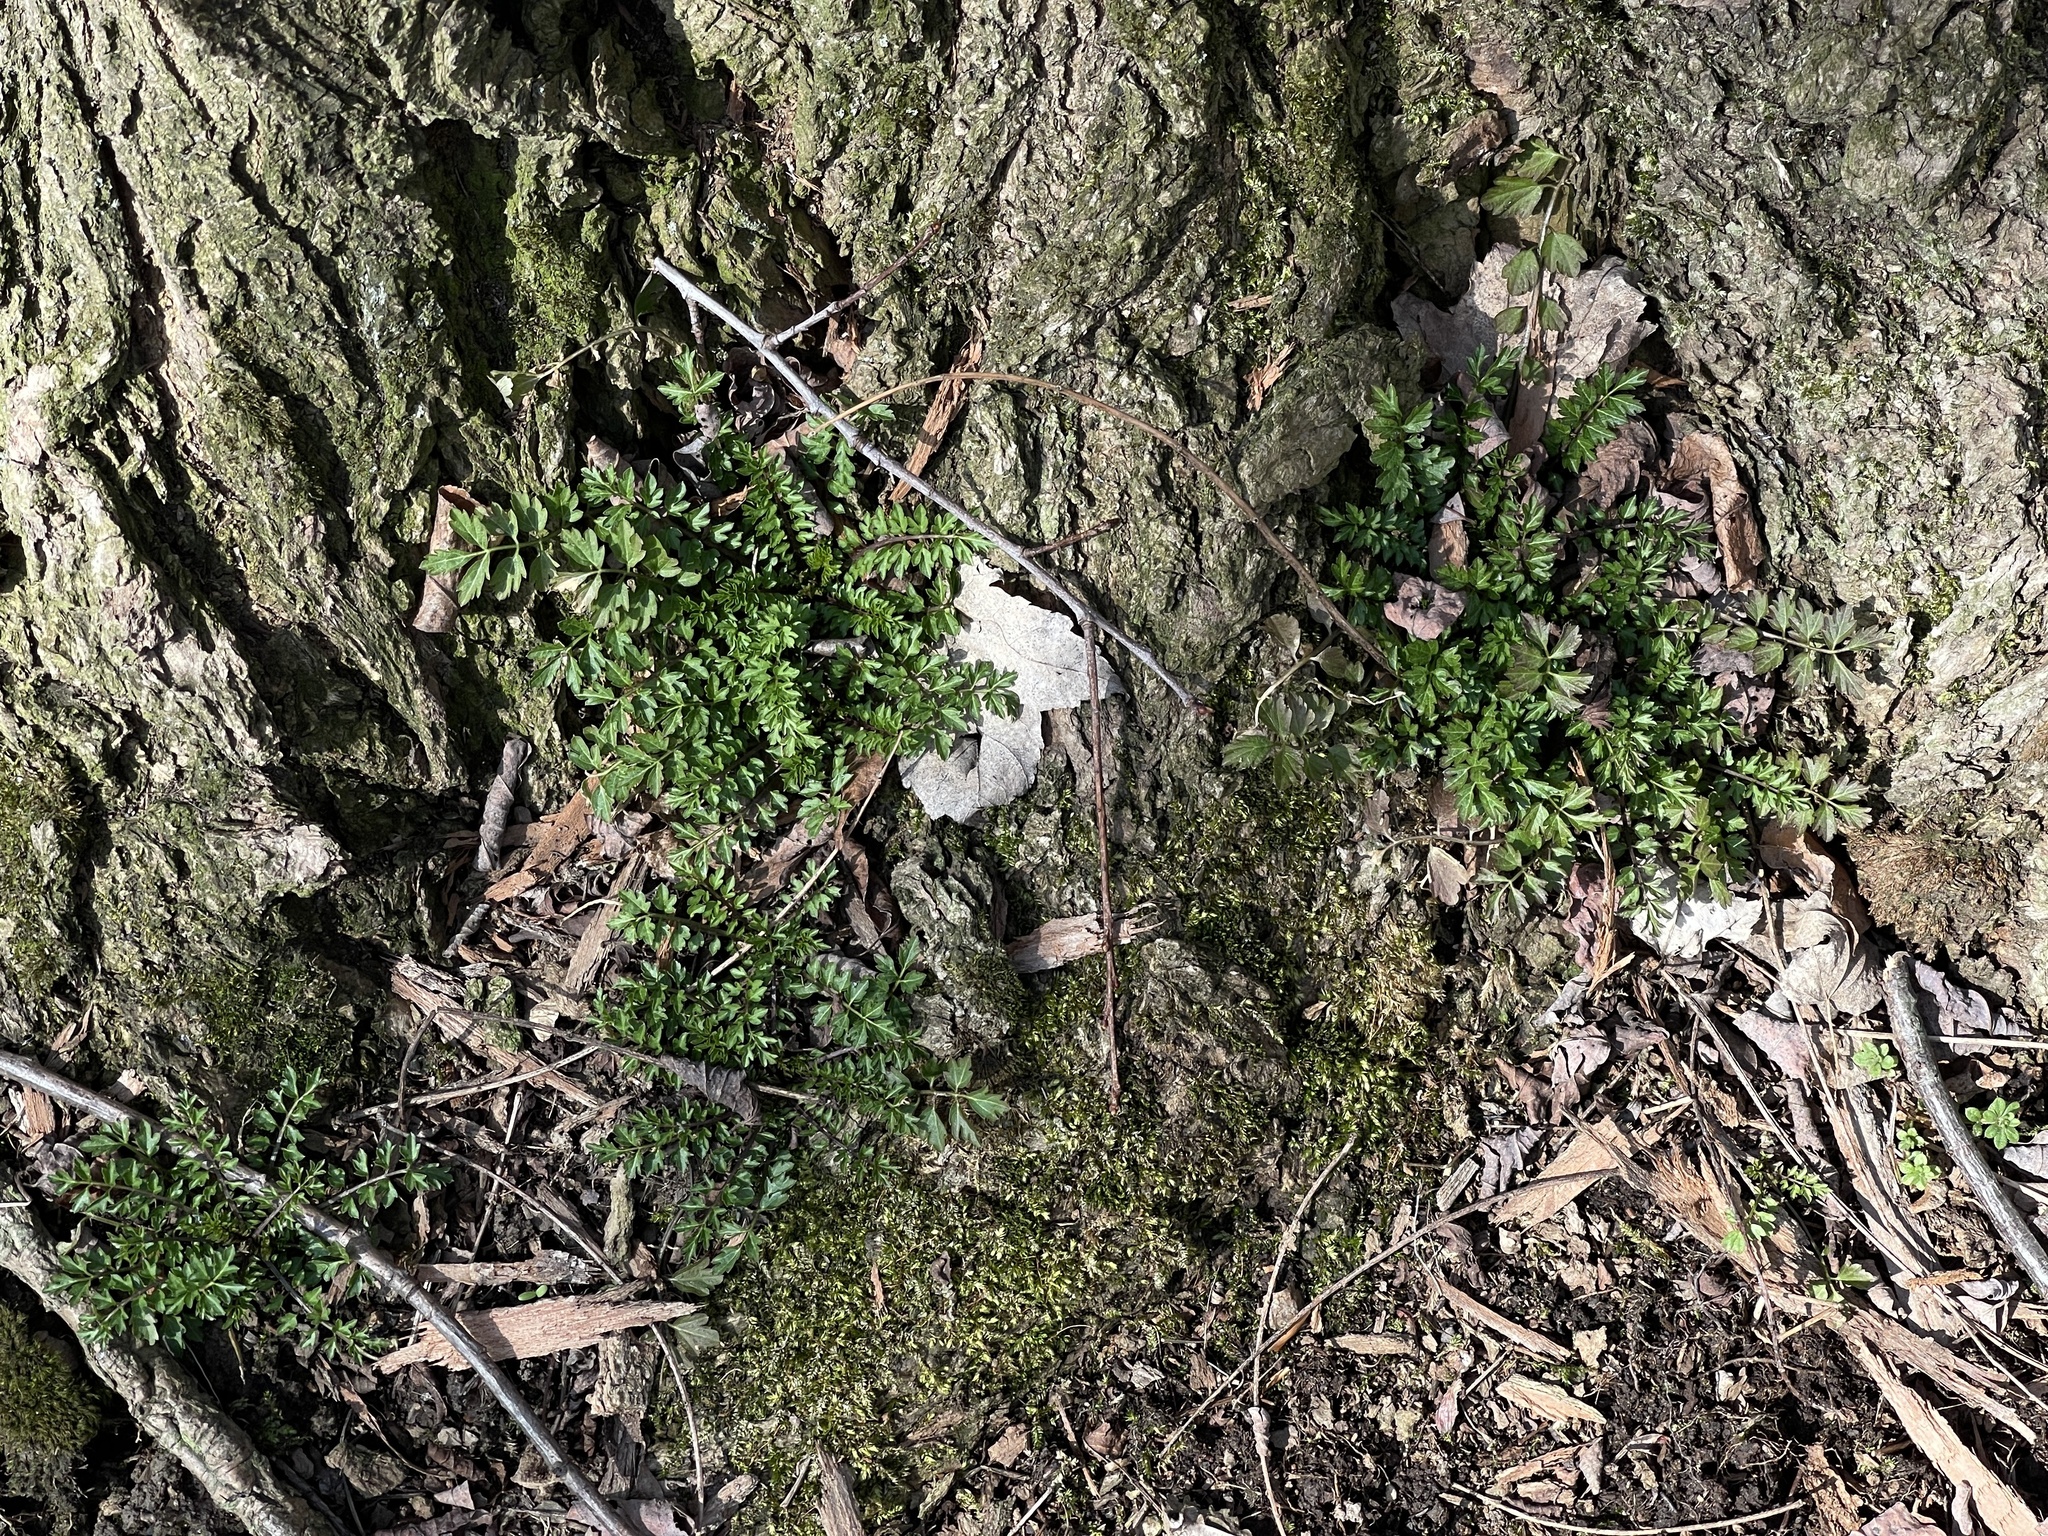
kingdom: Plantae
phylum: Tracheophyta
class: Magnoliopsida
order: Brassicales
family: Brassicaceae
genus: Cardamine
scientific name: Cardamine impatiens
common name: Narrow-leaved bitter-cress
